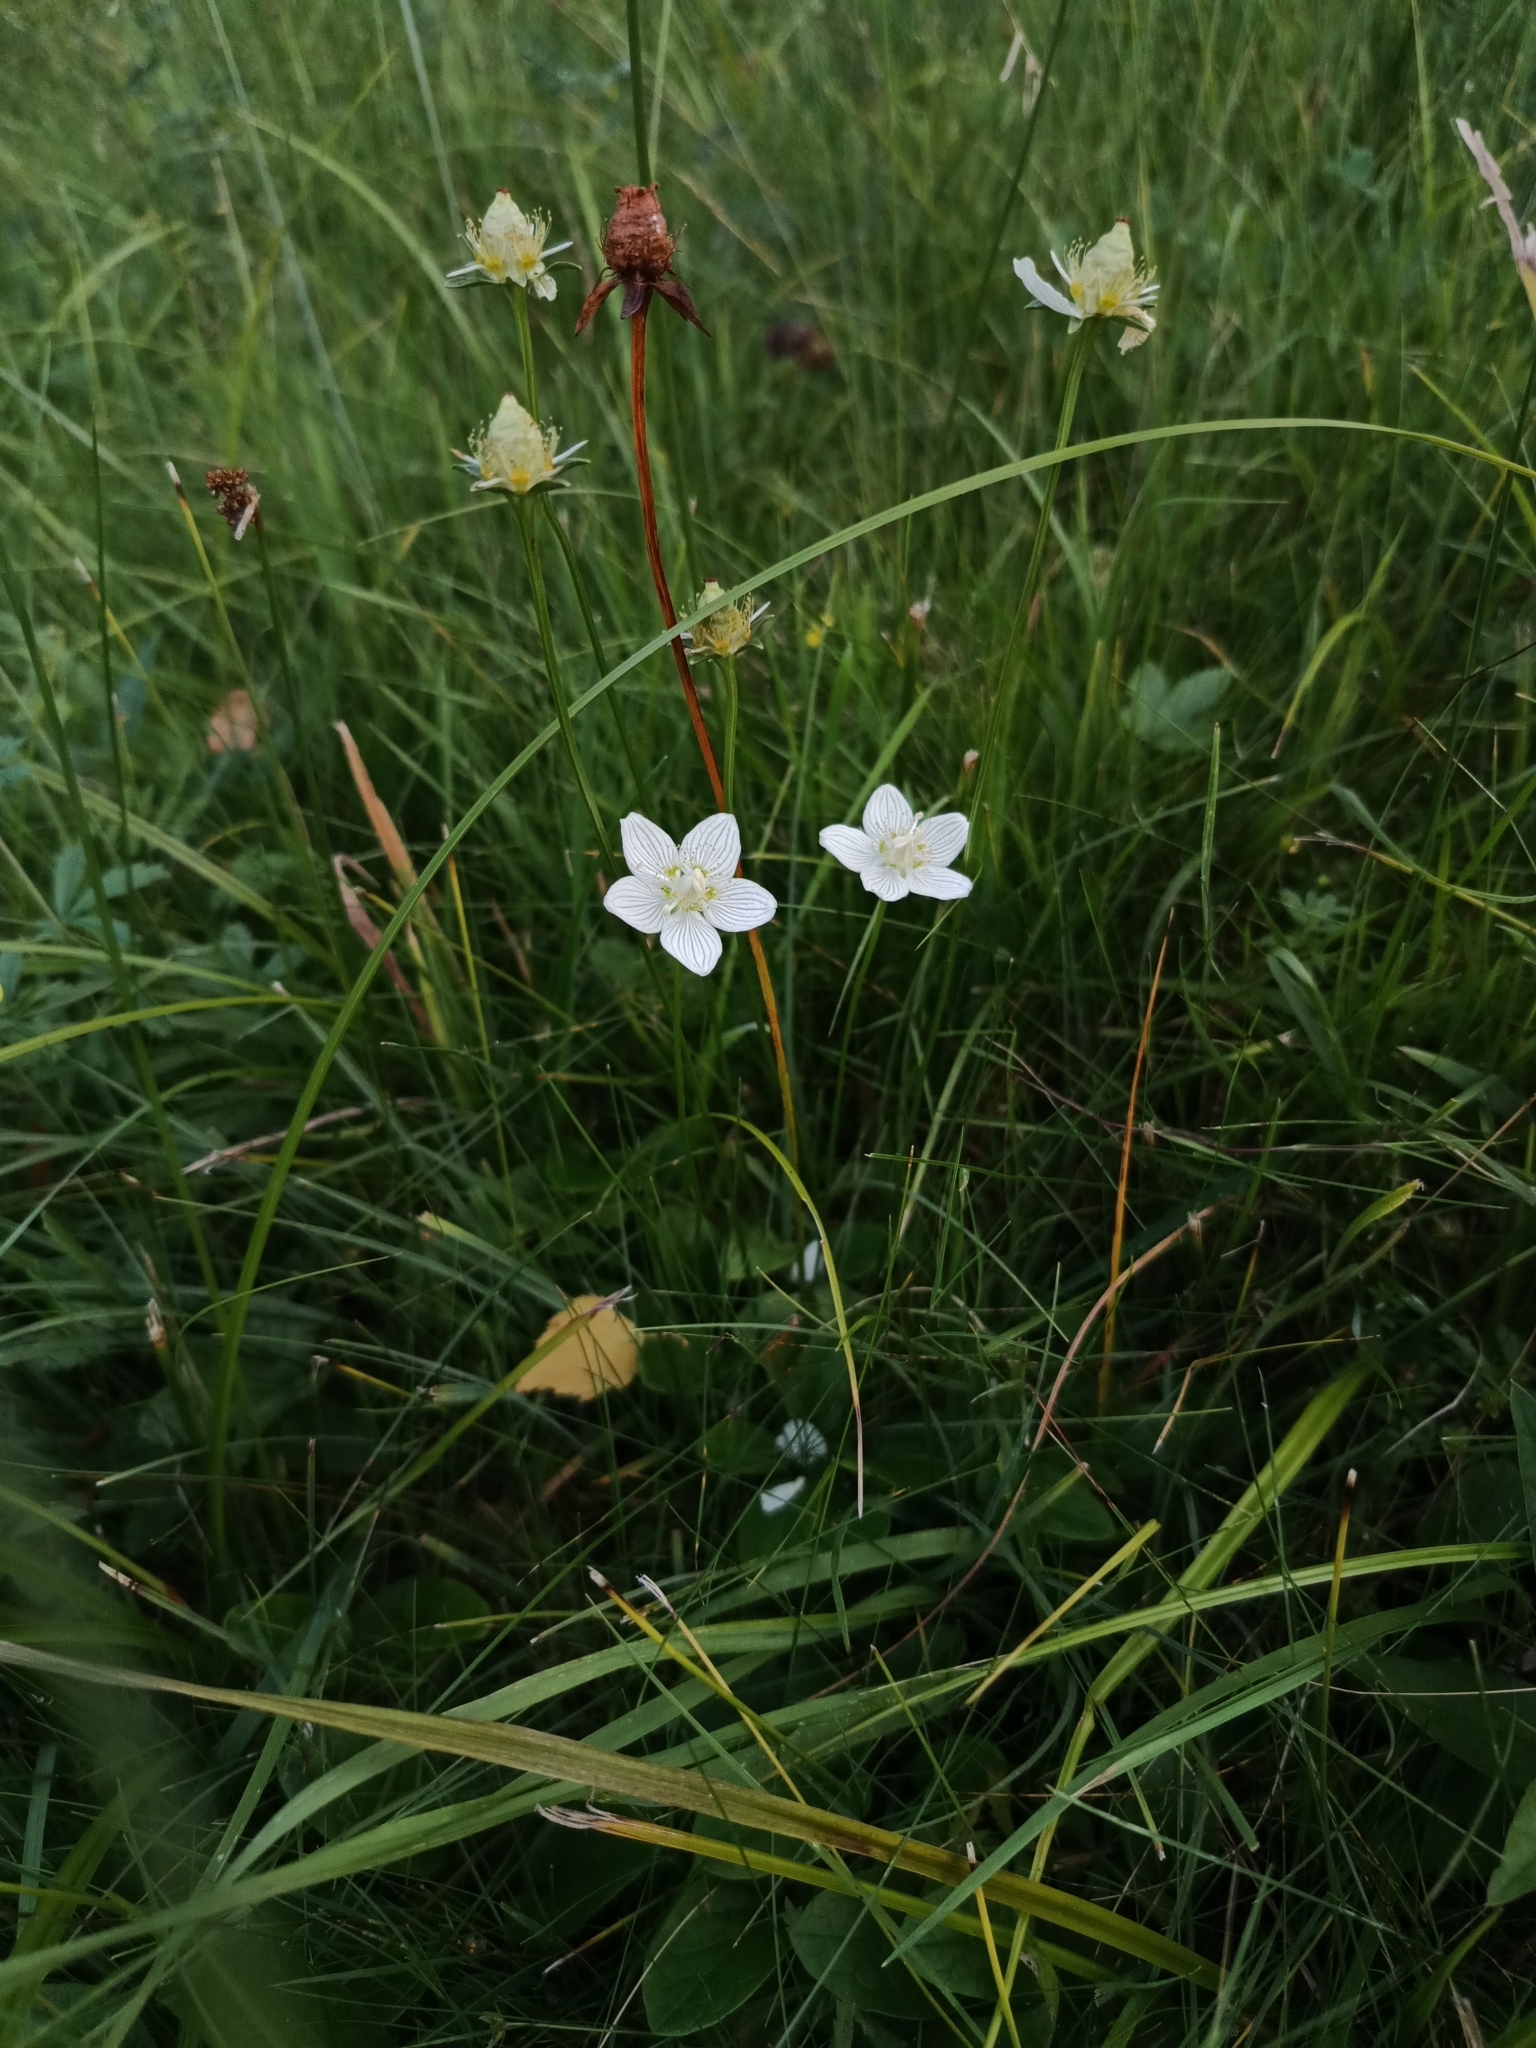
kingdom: Plantae
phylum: Tracheophyta
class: Magnoliopsida
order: Celastrales
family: Parnassiaceae
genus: Parnassia
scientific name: Parnassia palustris
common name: Grass-of-parnassus
